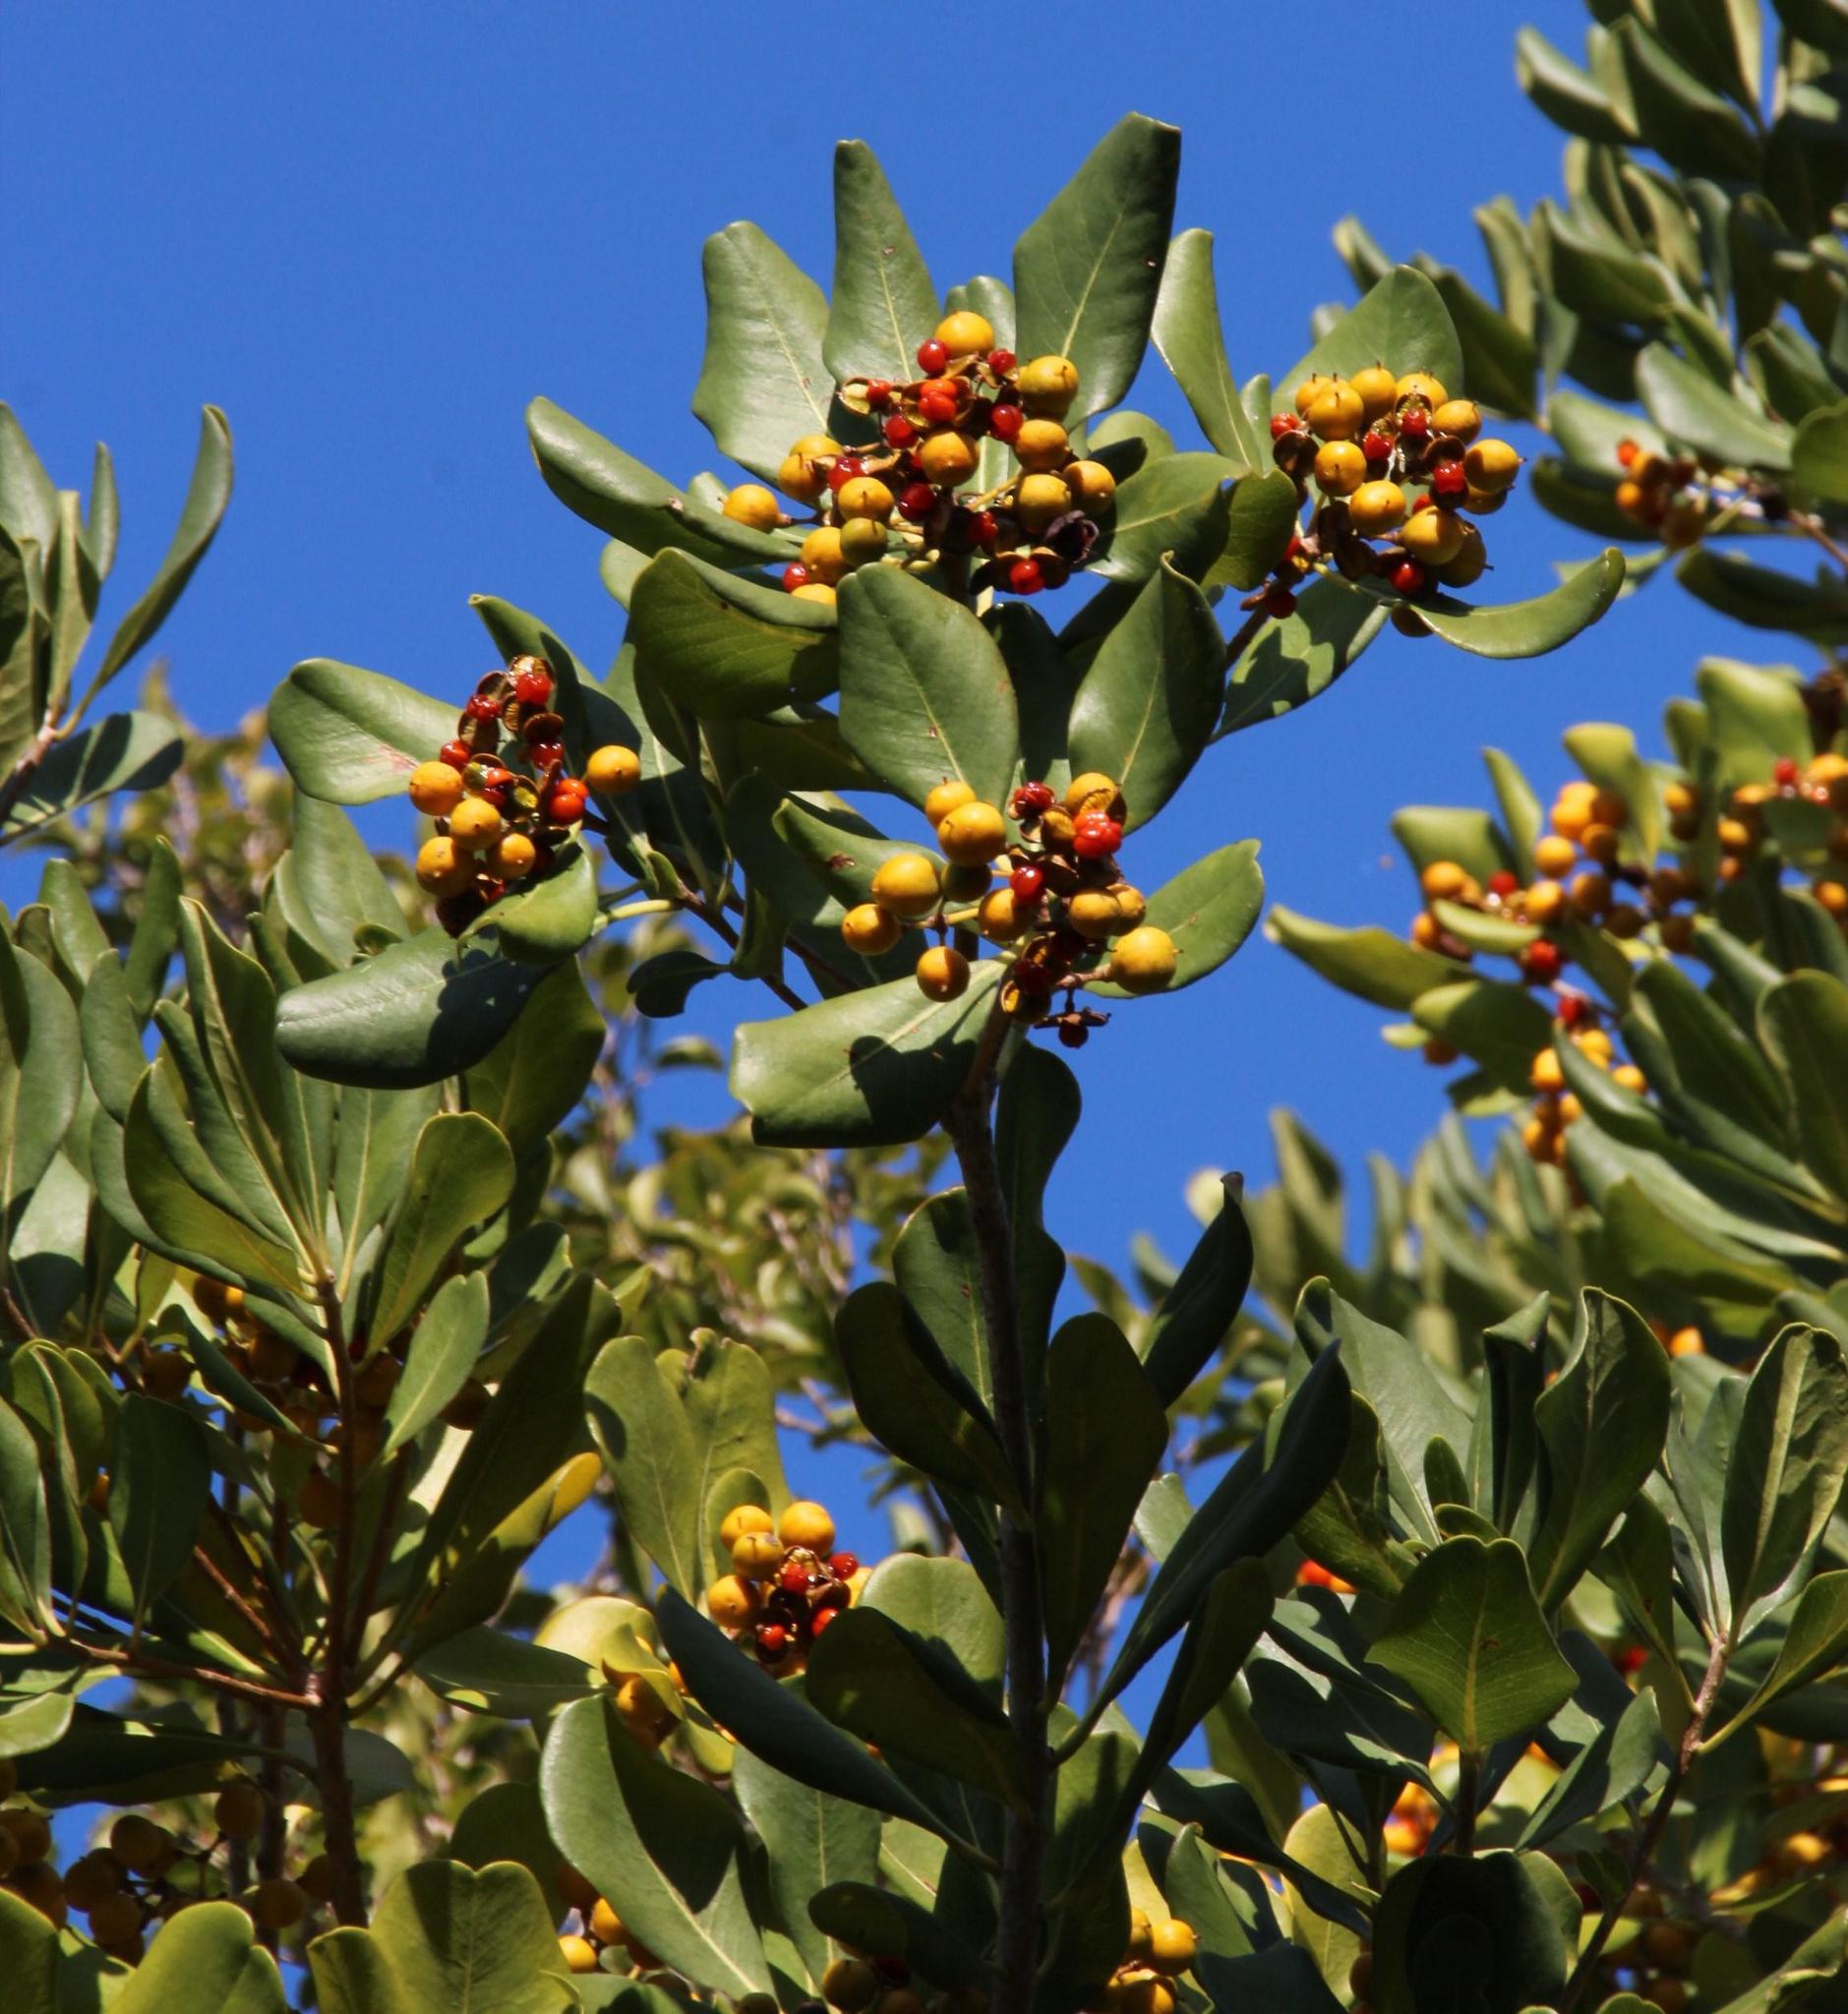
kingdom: Plantae
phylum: Tracheophyta
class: Magnoliopsida
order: Apiales
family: Pittosporaceae
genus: Pittosporum
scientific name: Pittosporum viridiflorum
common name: Cape cheesewood
